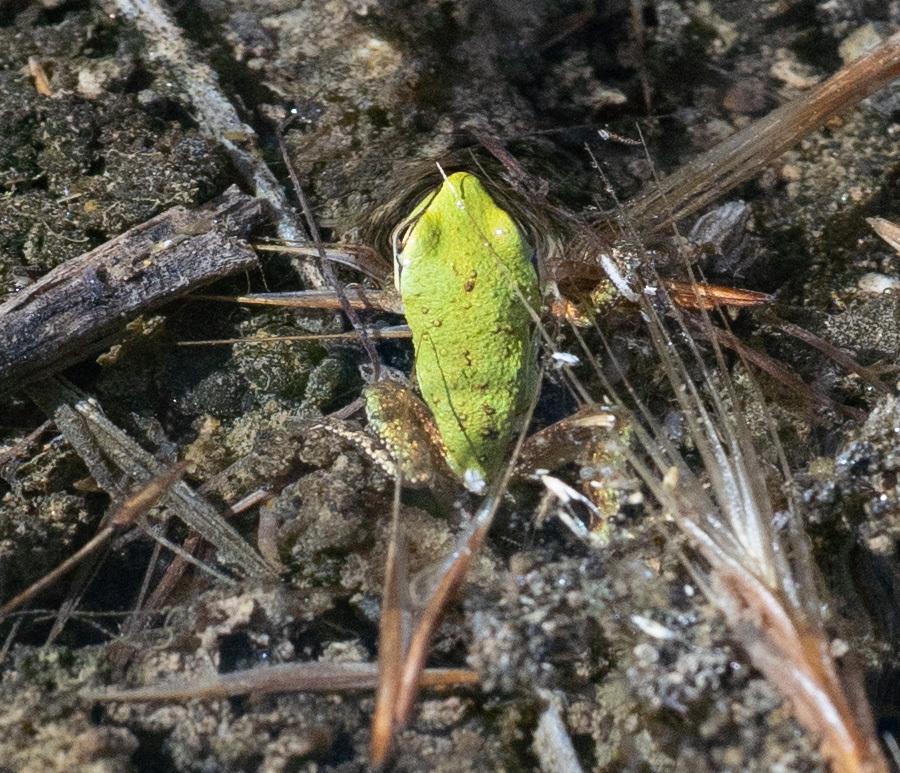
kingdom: Animalia
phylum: Chordata
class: Amphibia
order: Anura
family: Hylidae
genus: Pseudacris
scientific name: Pseudacris regilla
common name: Pacific chorus frog
